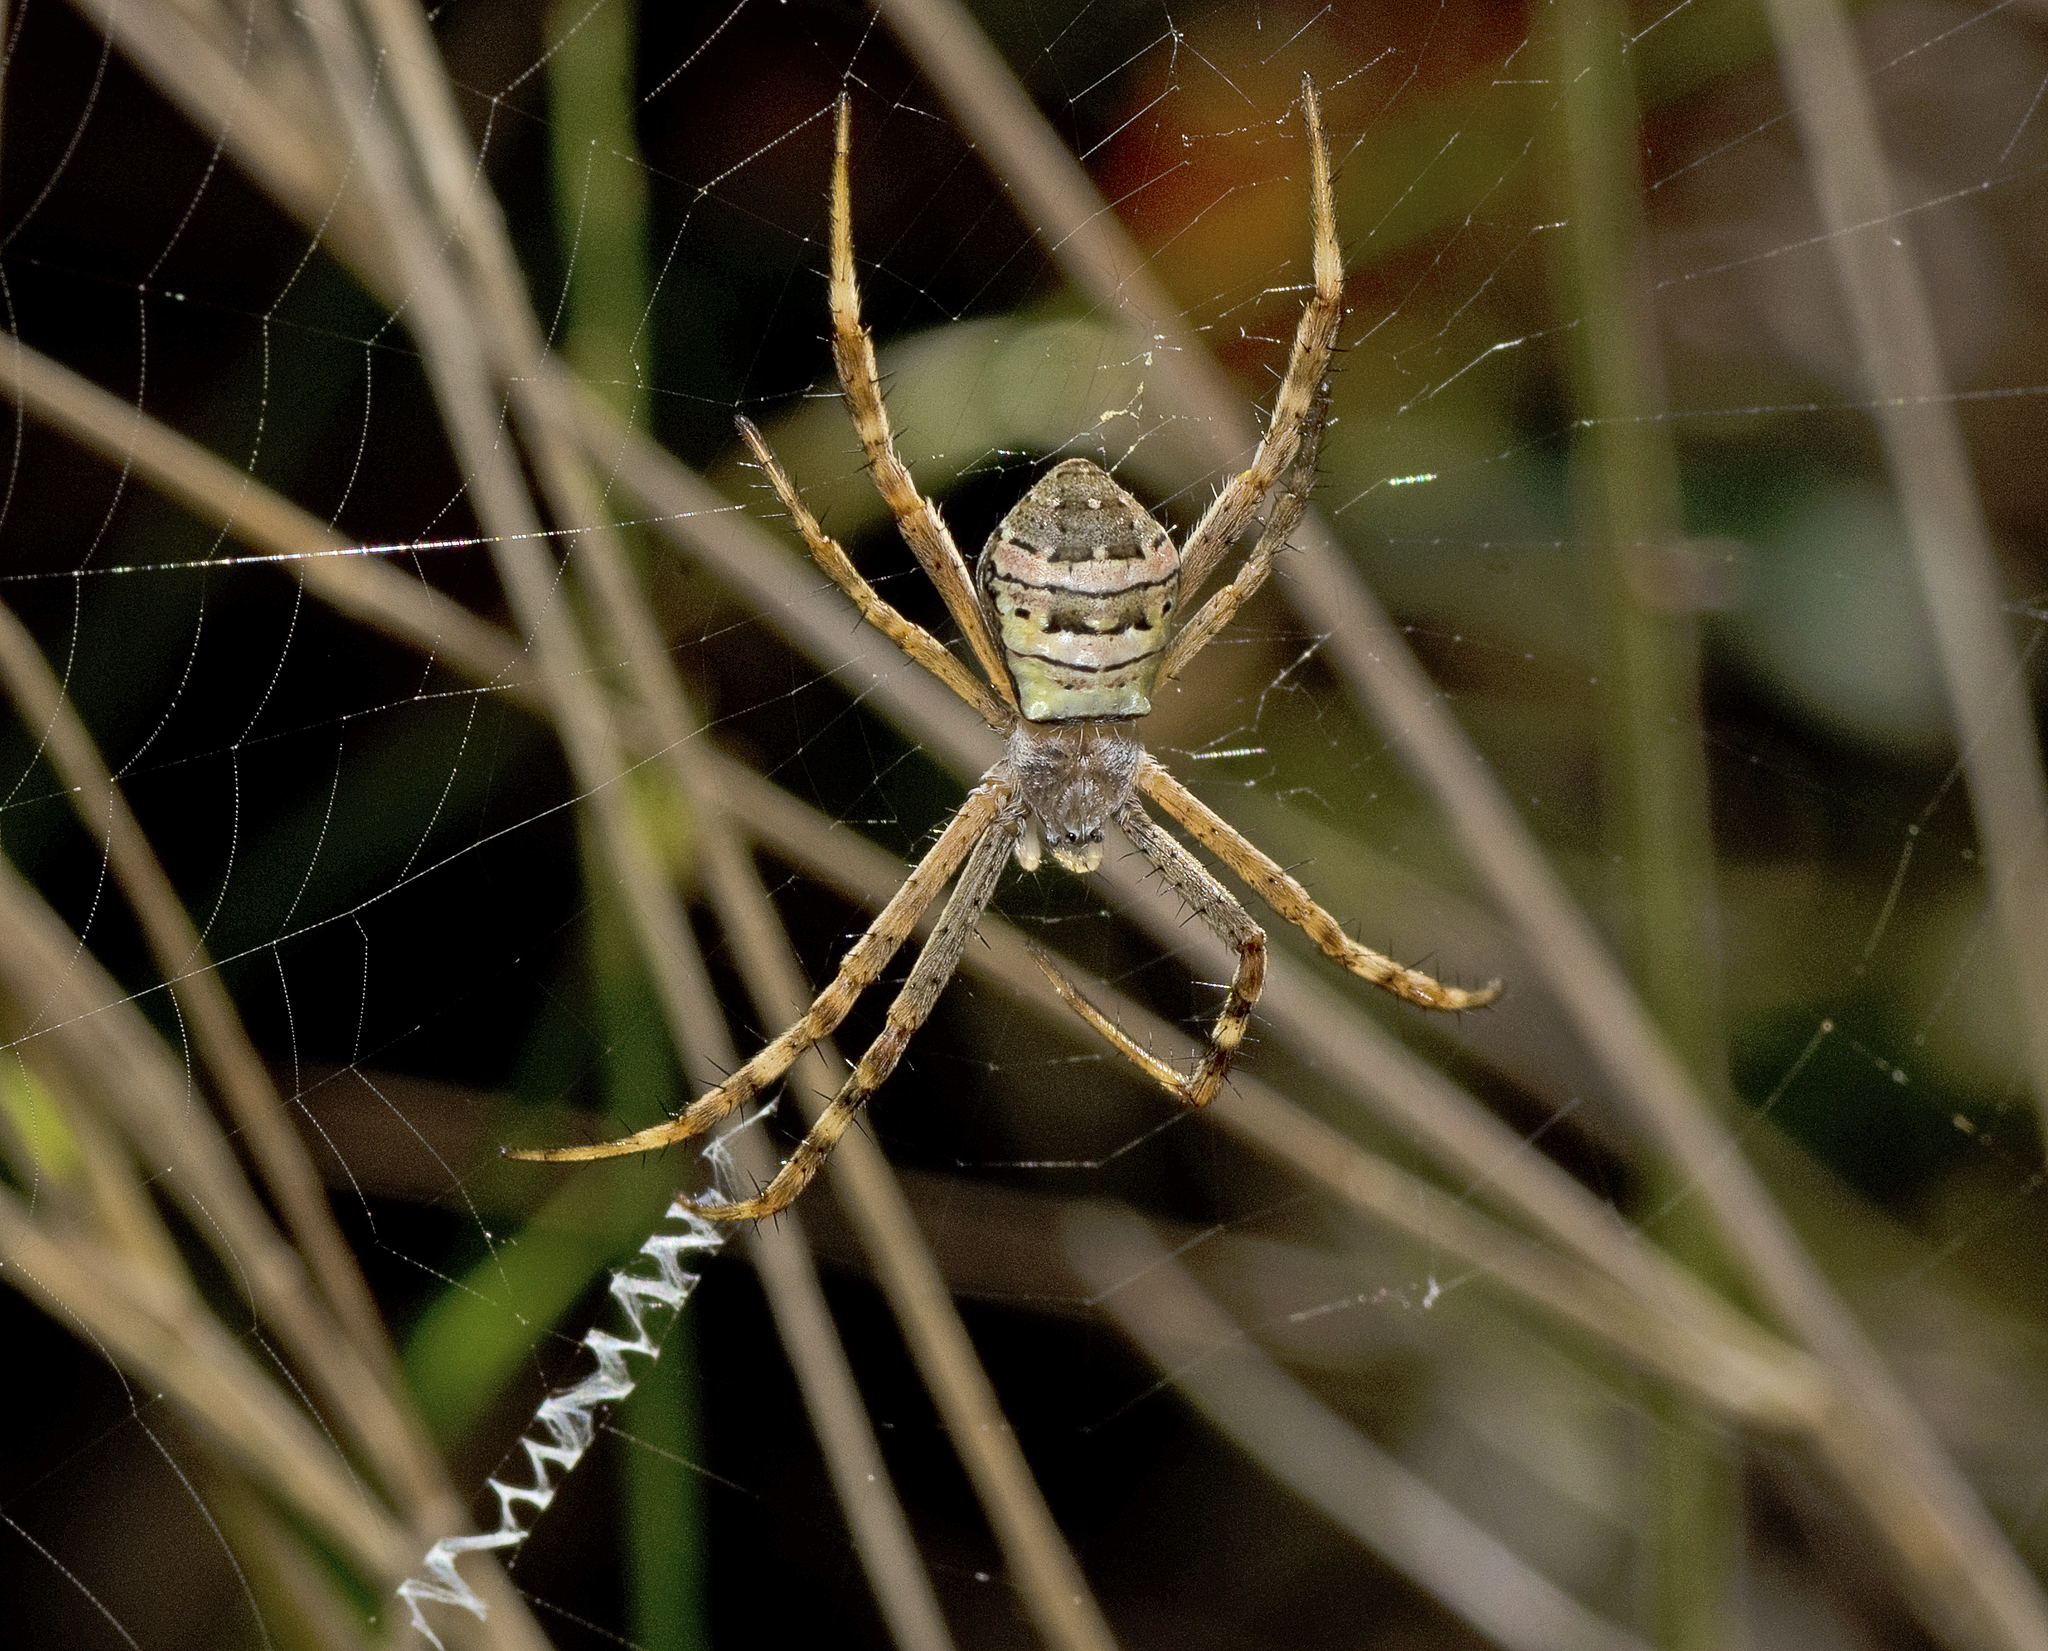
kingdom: Animalia
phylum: Arthropoda
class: Arachnida
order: Araneae
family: Araneidae
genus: Argiope
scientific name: Argiope keyserlingi
